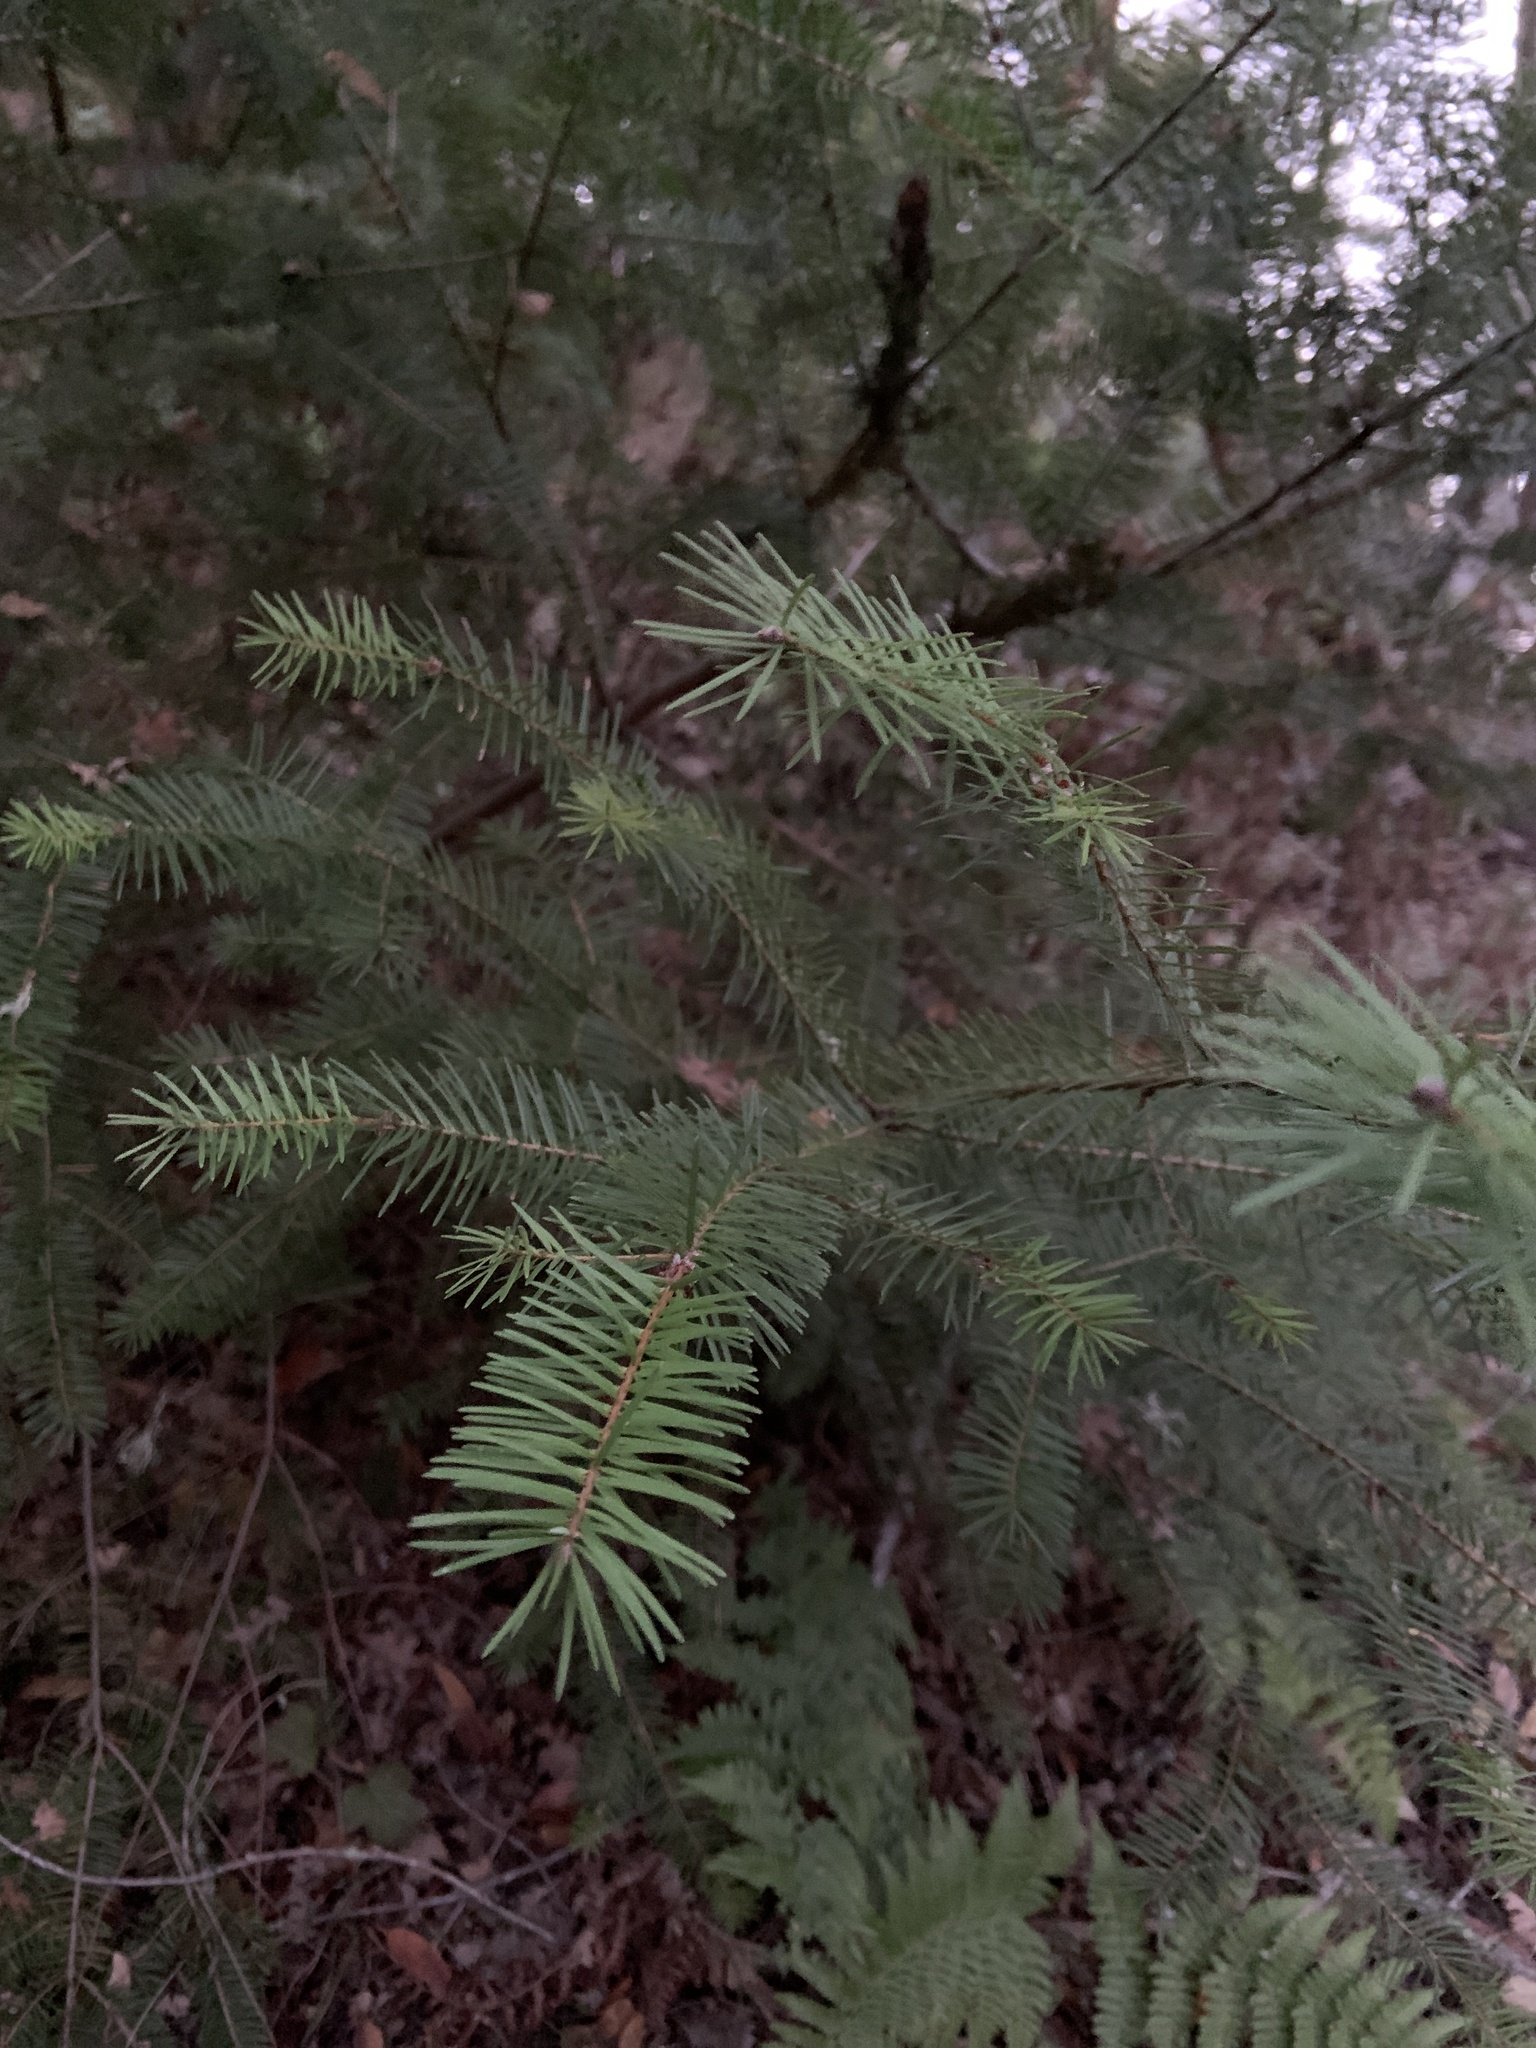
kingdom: Plantae
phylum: Tracheophyta
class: Pinopsida
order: Pinales
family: Pinaceae
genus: Pseudotsuga
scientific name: Pseudotsuga menziesii
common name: Douglas fir
